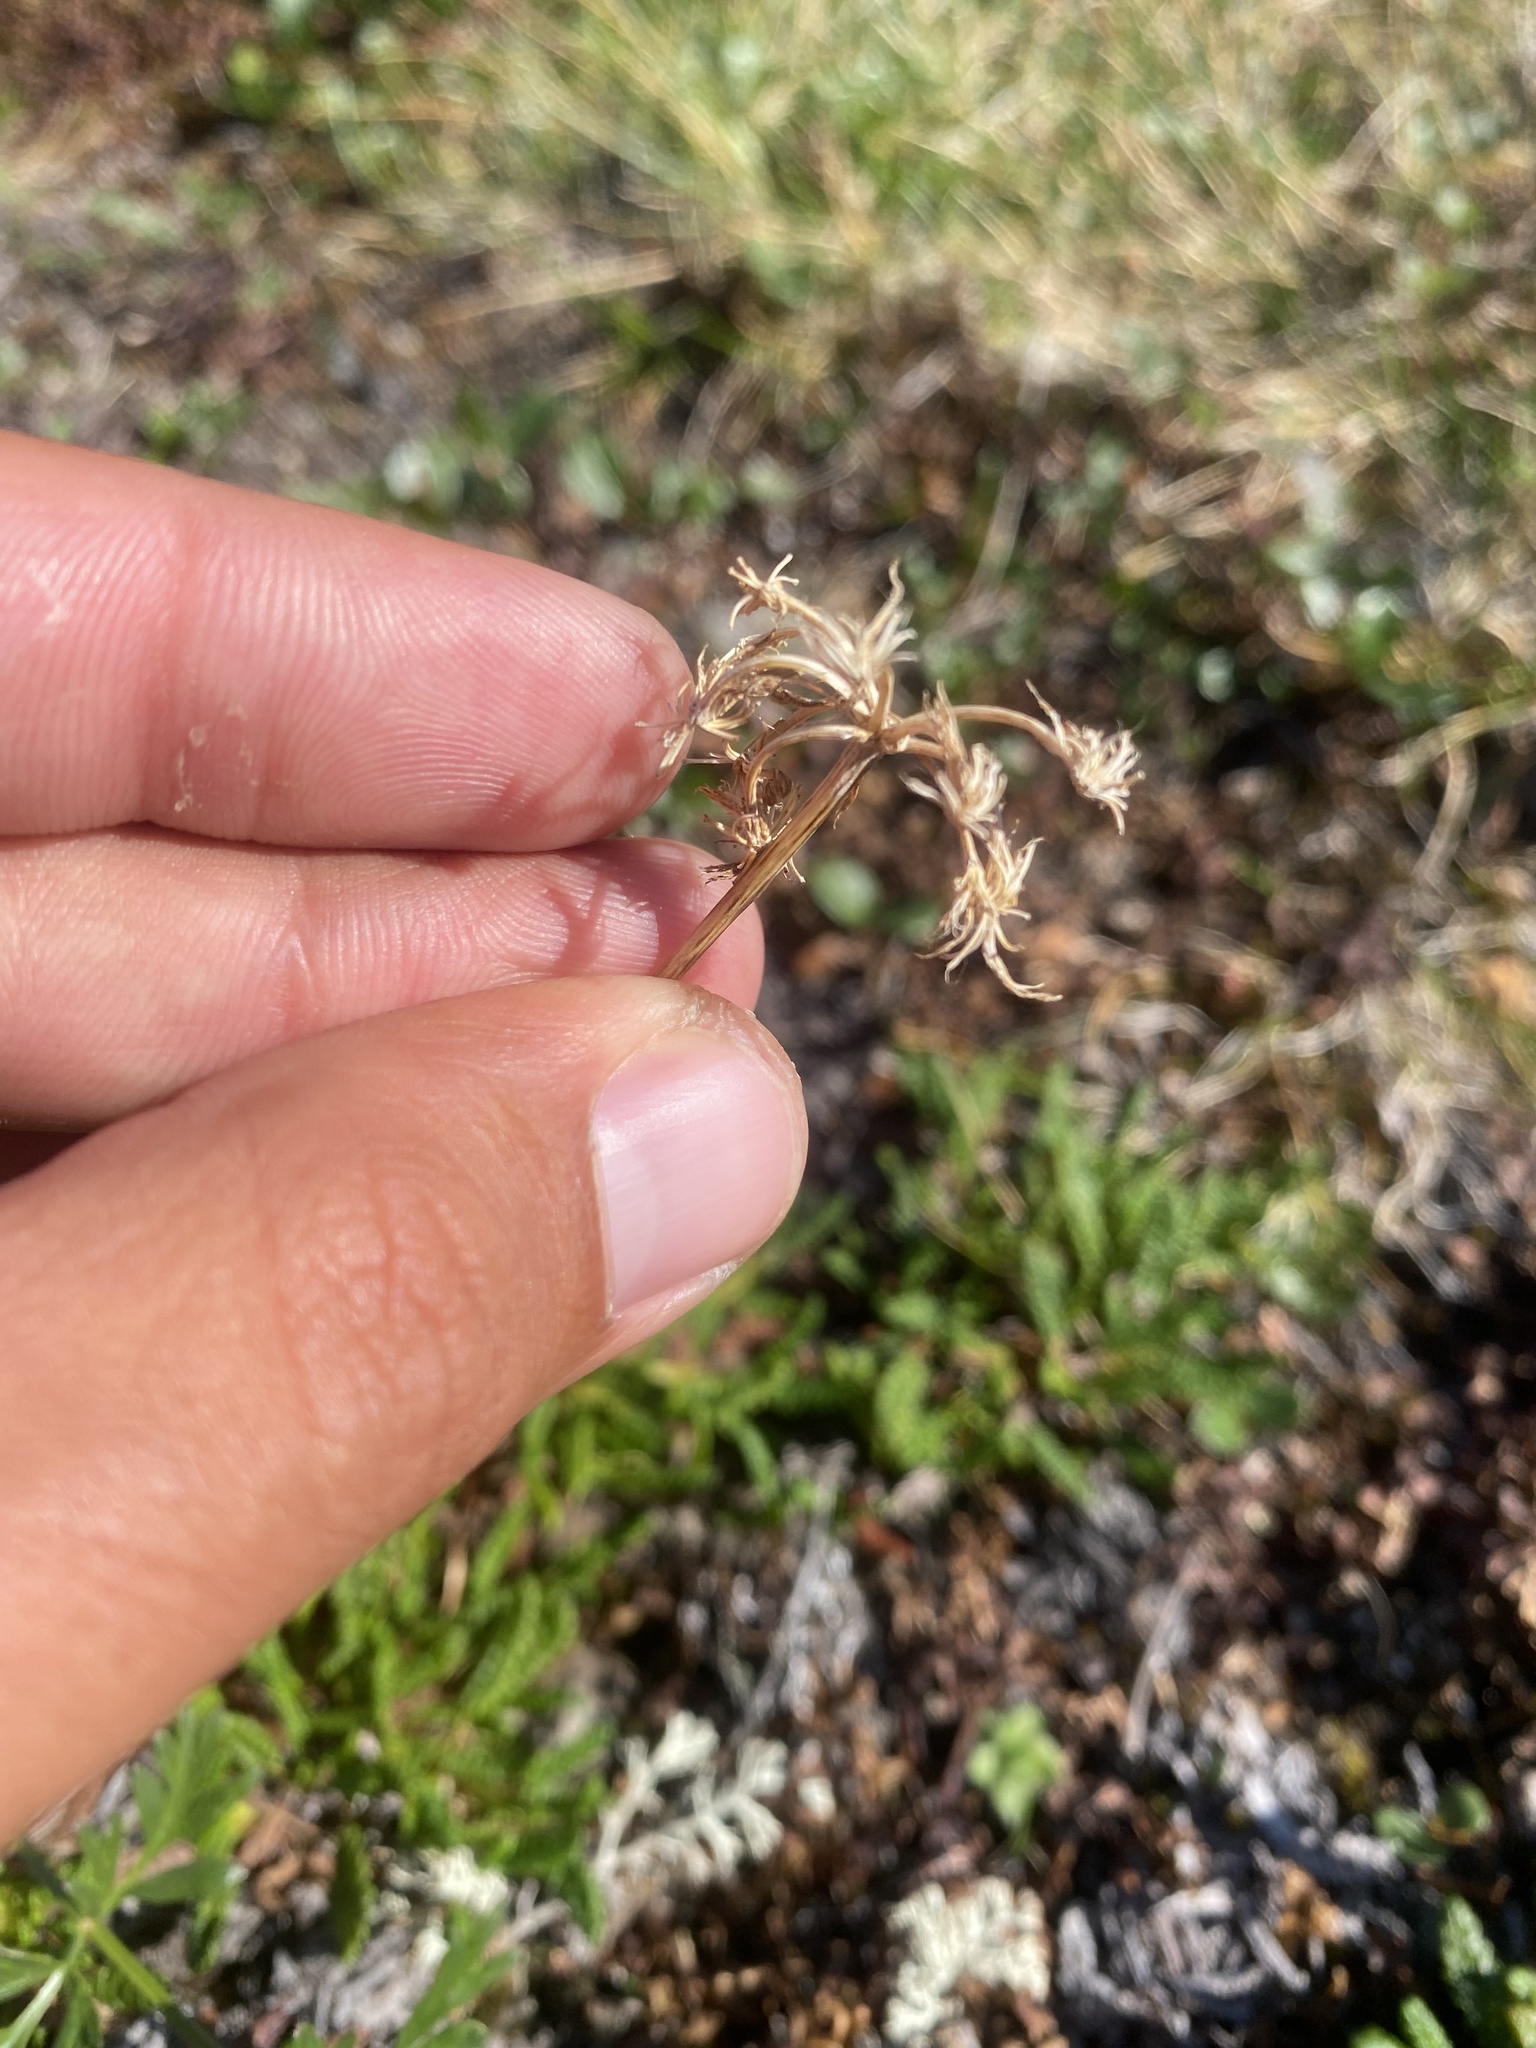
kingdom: Plantae
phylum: Tracheophyta
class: Magnoliopsida
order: Apiales
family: Apiaceae
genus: Pachypleurum
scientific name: Pachypleurum mutellinoides
